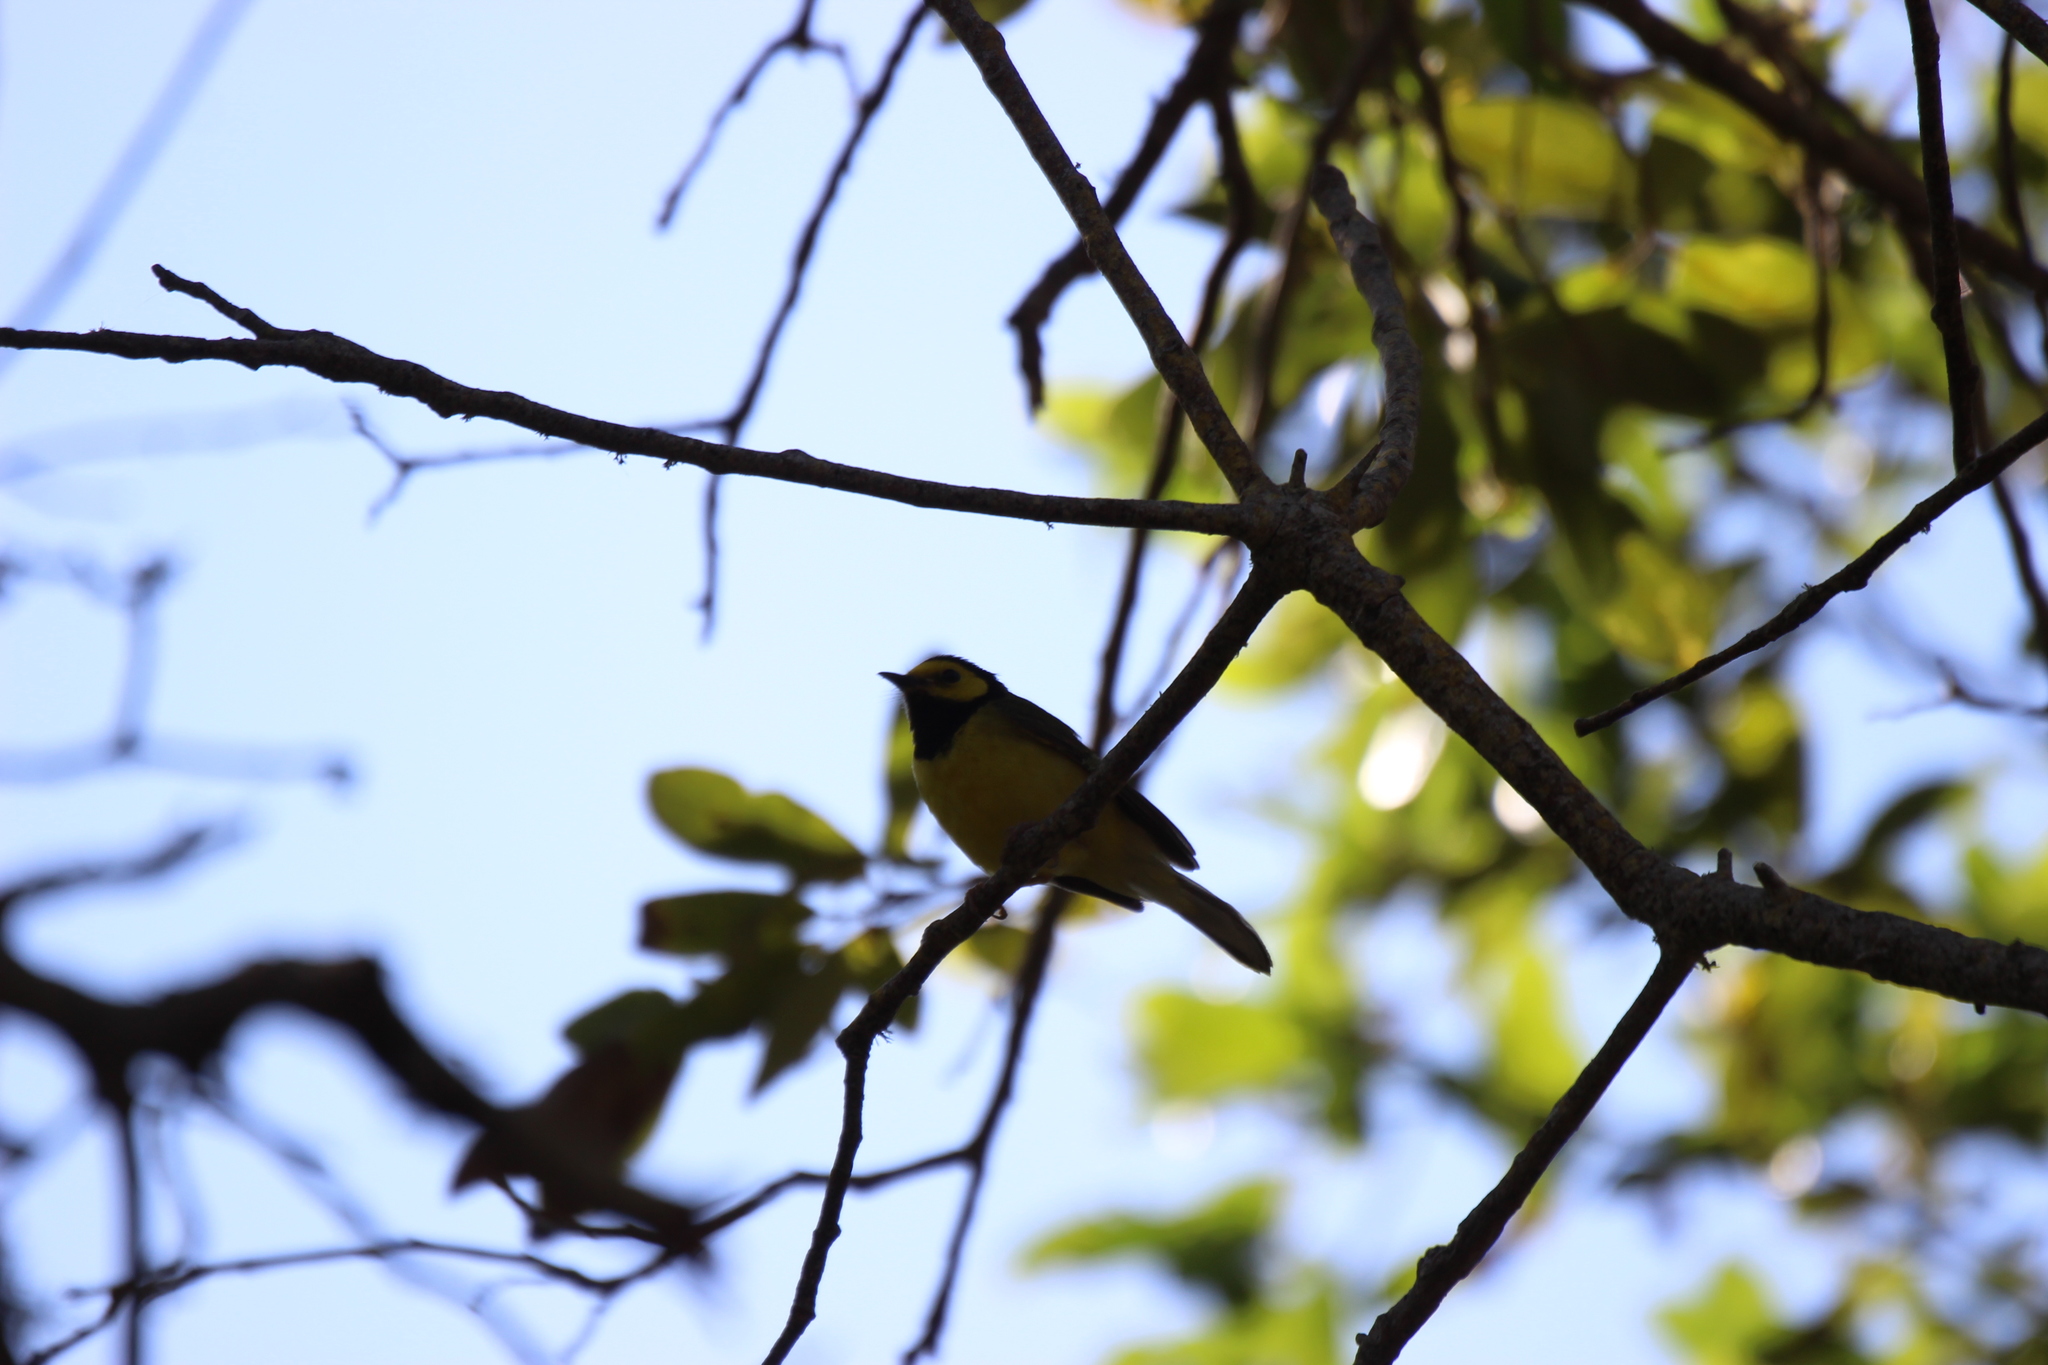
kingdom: Animalia
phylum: Chordata
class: Aves
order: Passeriformes
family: Parulidae
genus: Setophaga
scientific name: Setophaga citrina
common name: Hooded warbler
